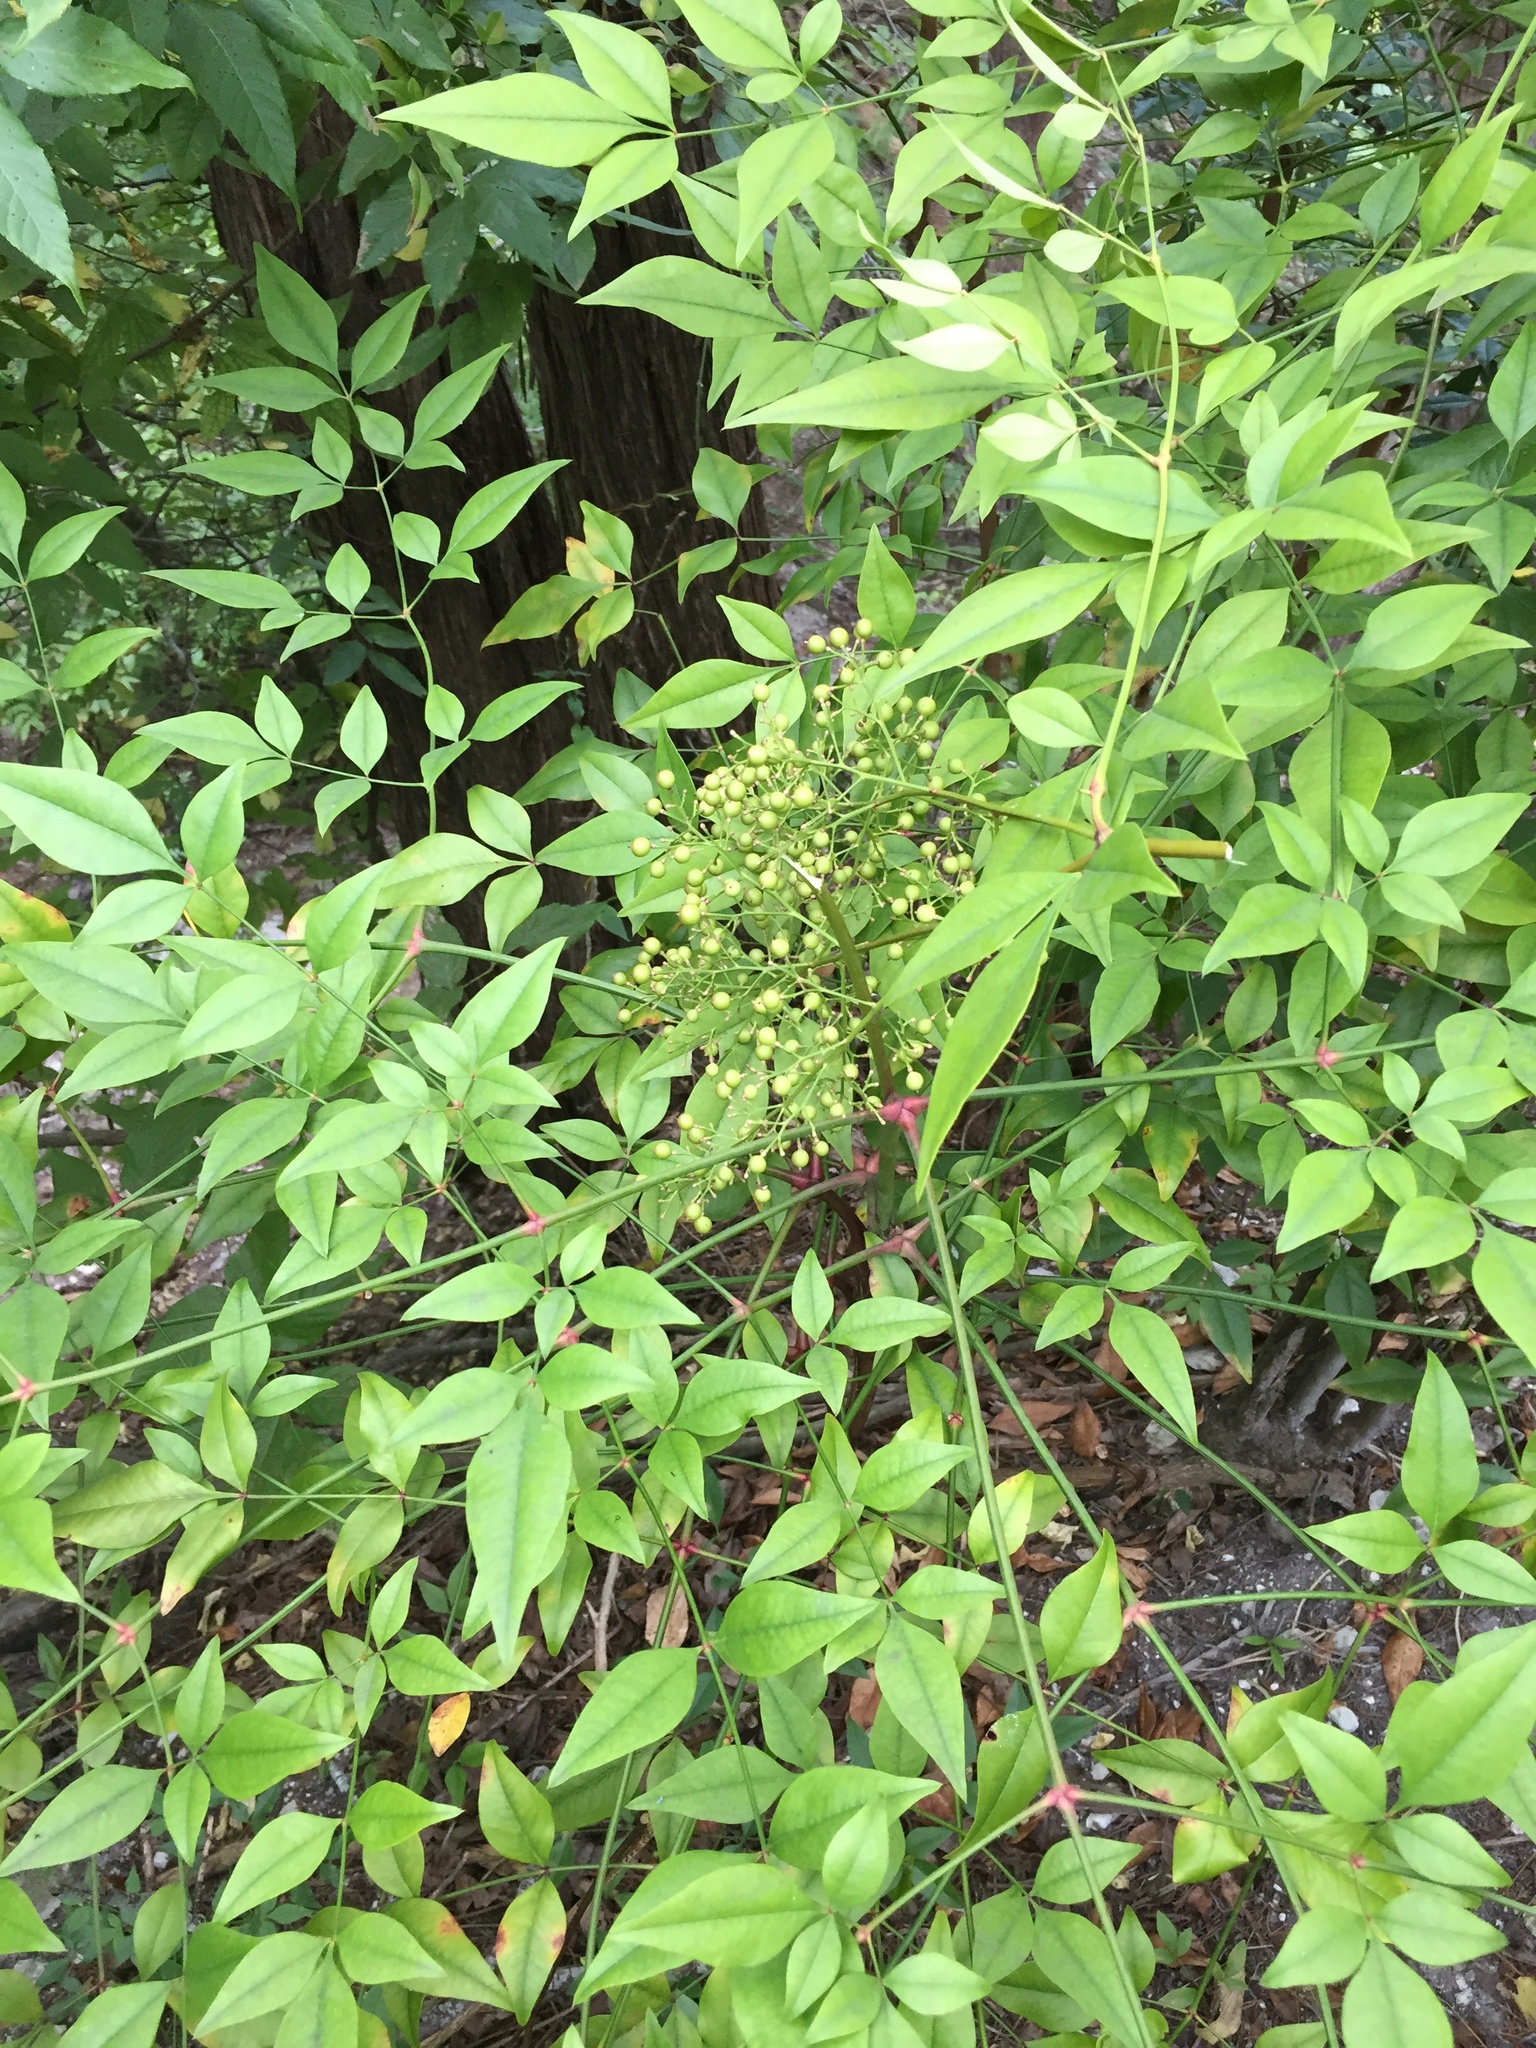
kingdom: Plantae
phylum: Tracheophyta
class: Magnoliopsida
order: Ranunculales
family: Berberidaceae
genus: Nandina
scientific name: Nandina domestica
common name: Sacred bamboo
